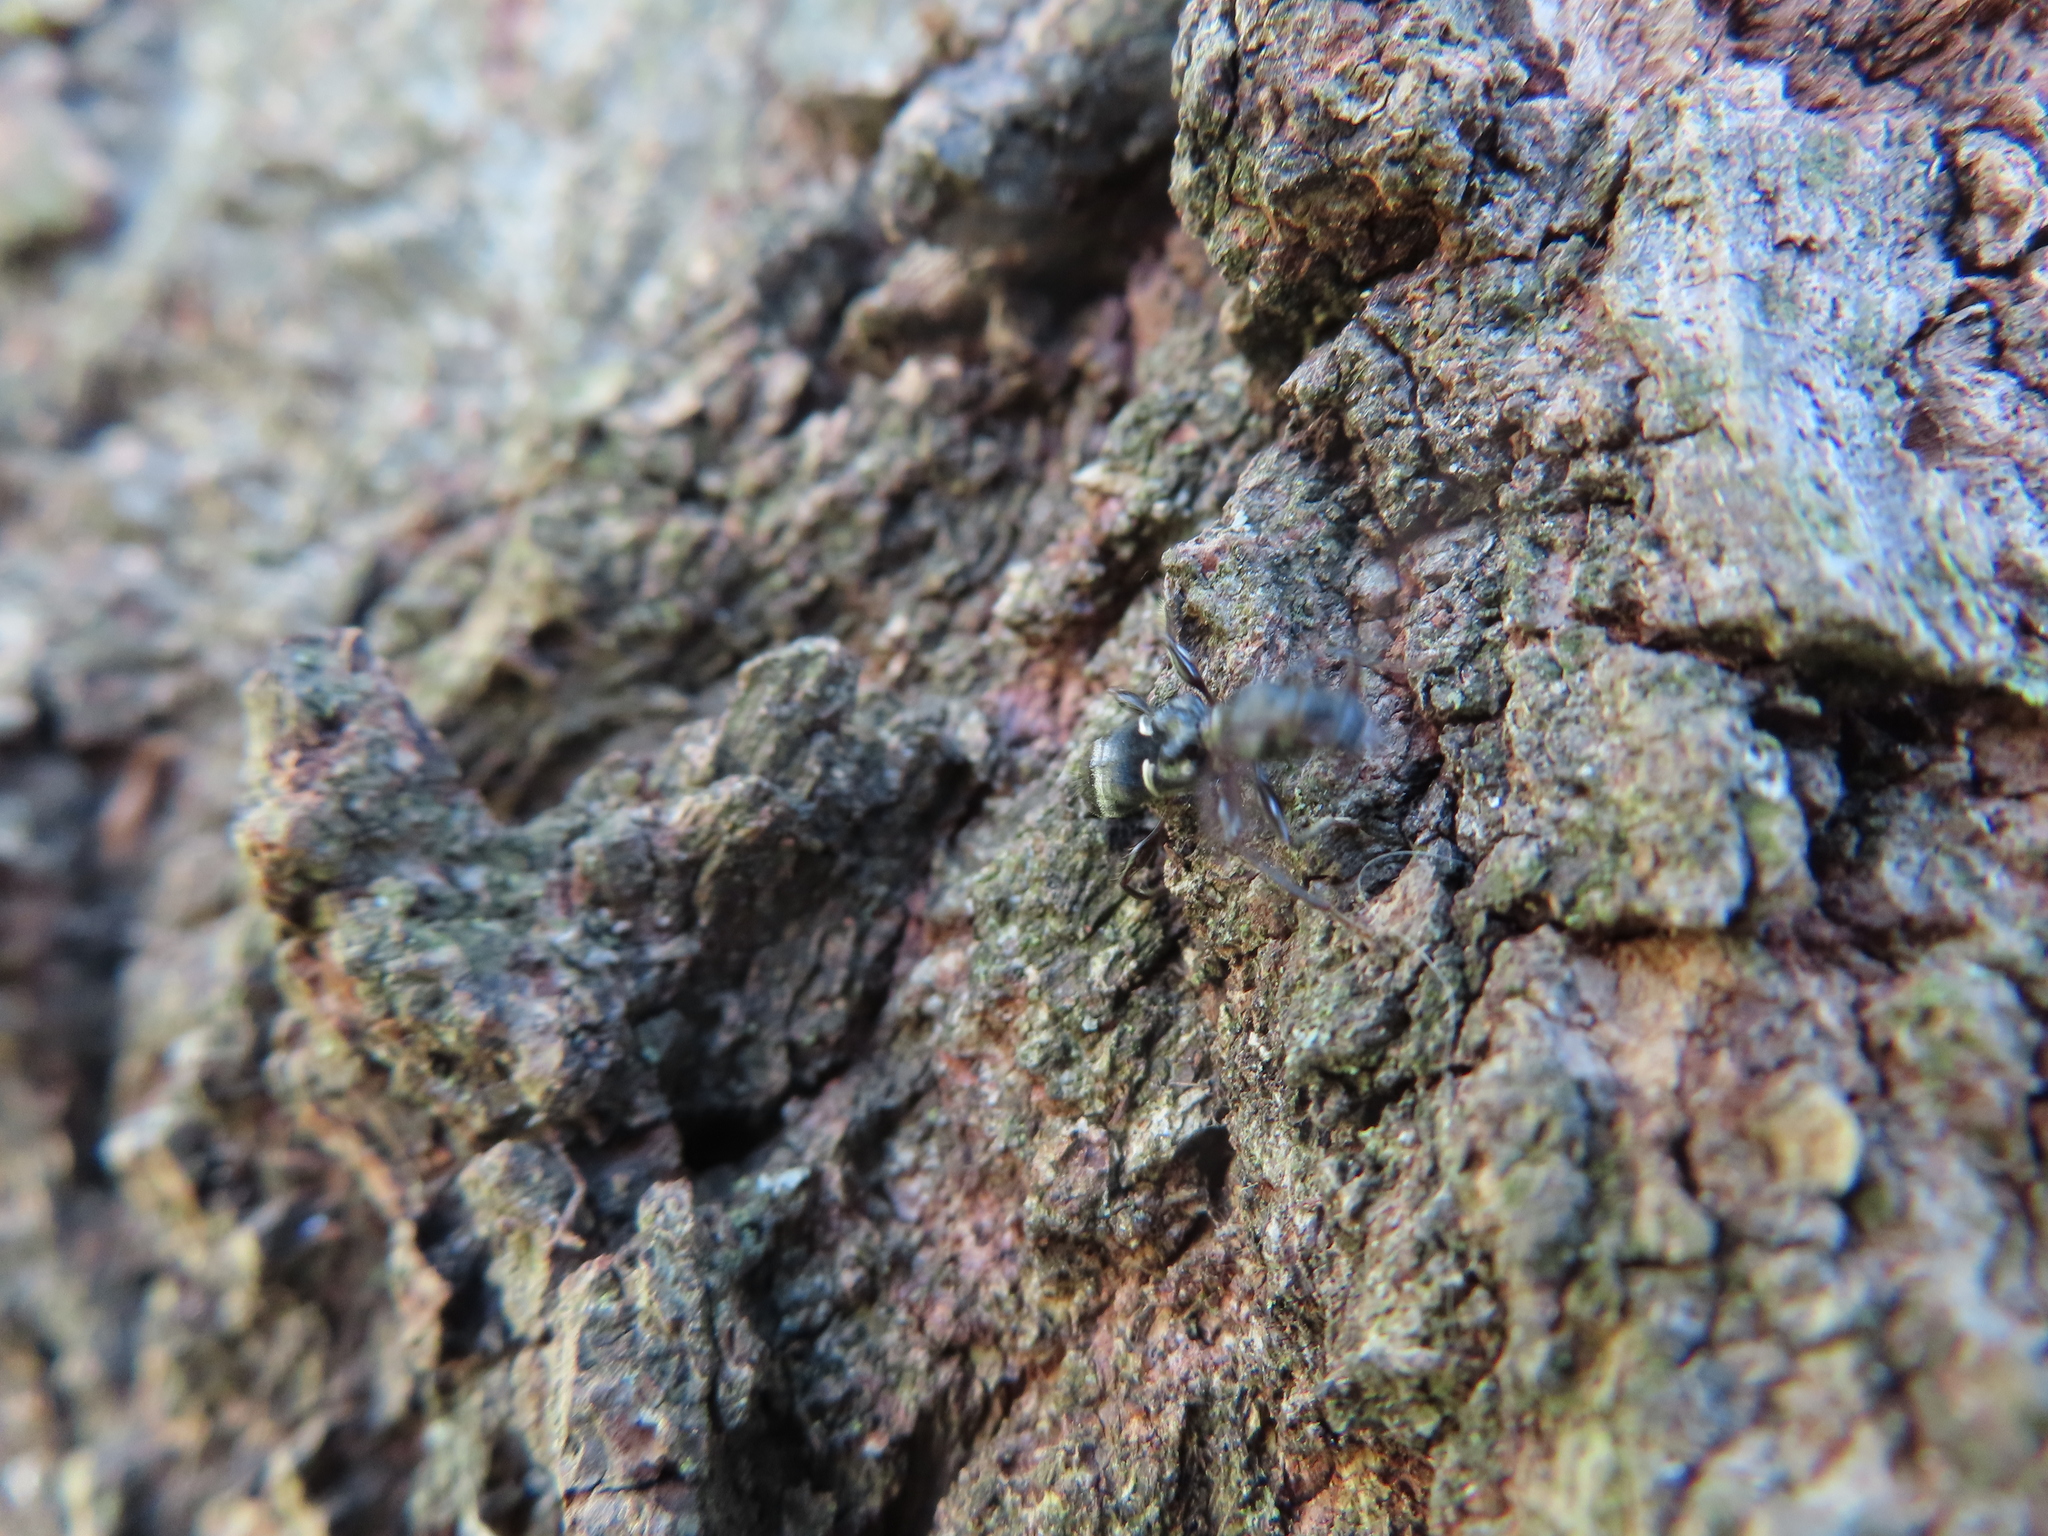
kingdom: Animalia
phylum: Arthropoda
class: Insecta
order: Coleoptera
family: Cerambycidae
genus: Euderces
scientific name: Euderces pini
